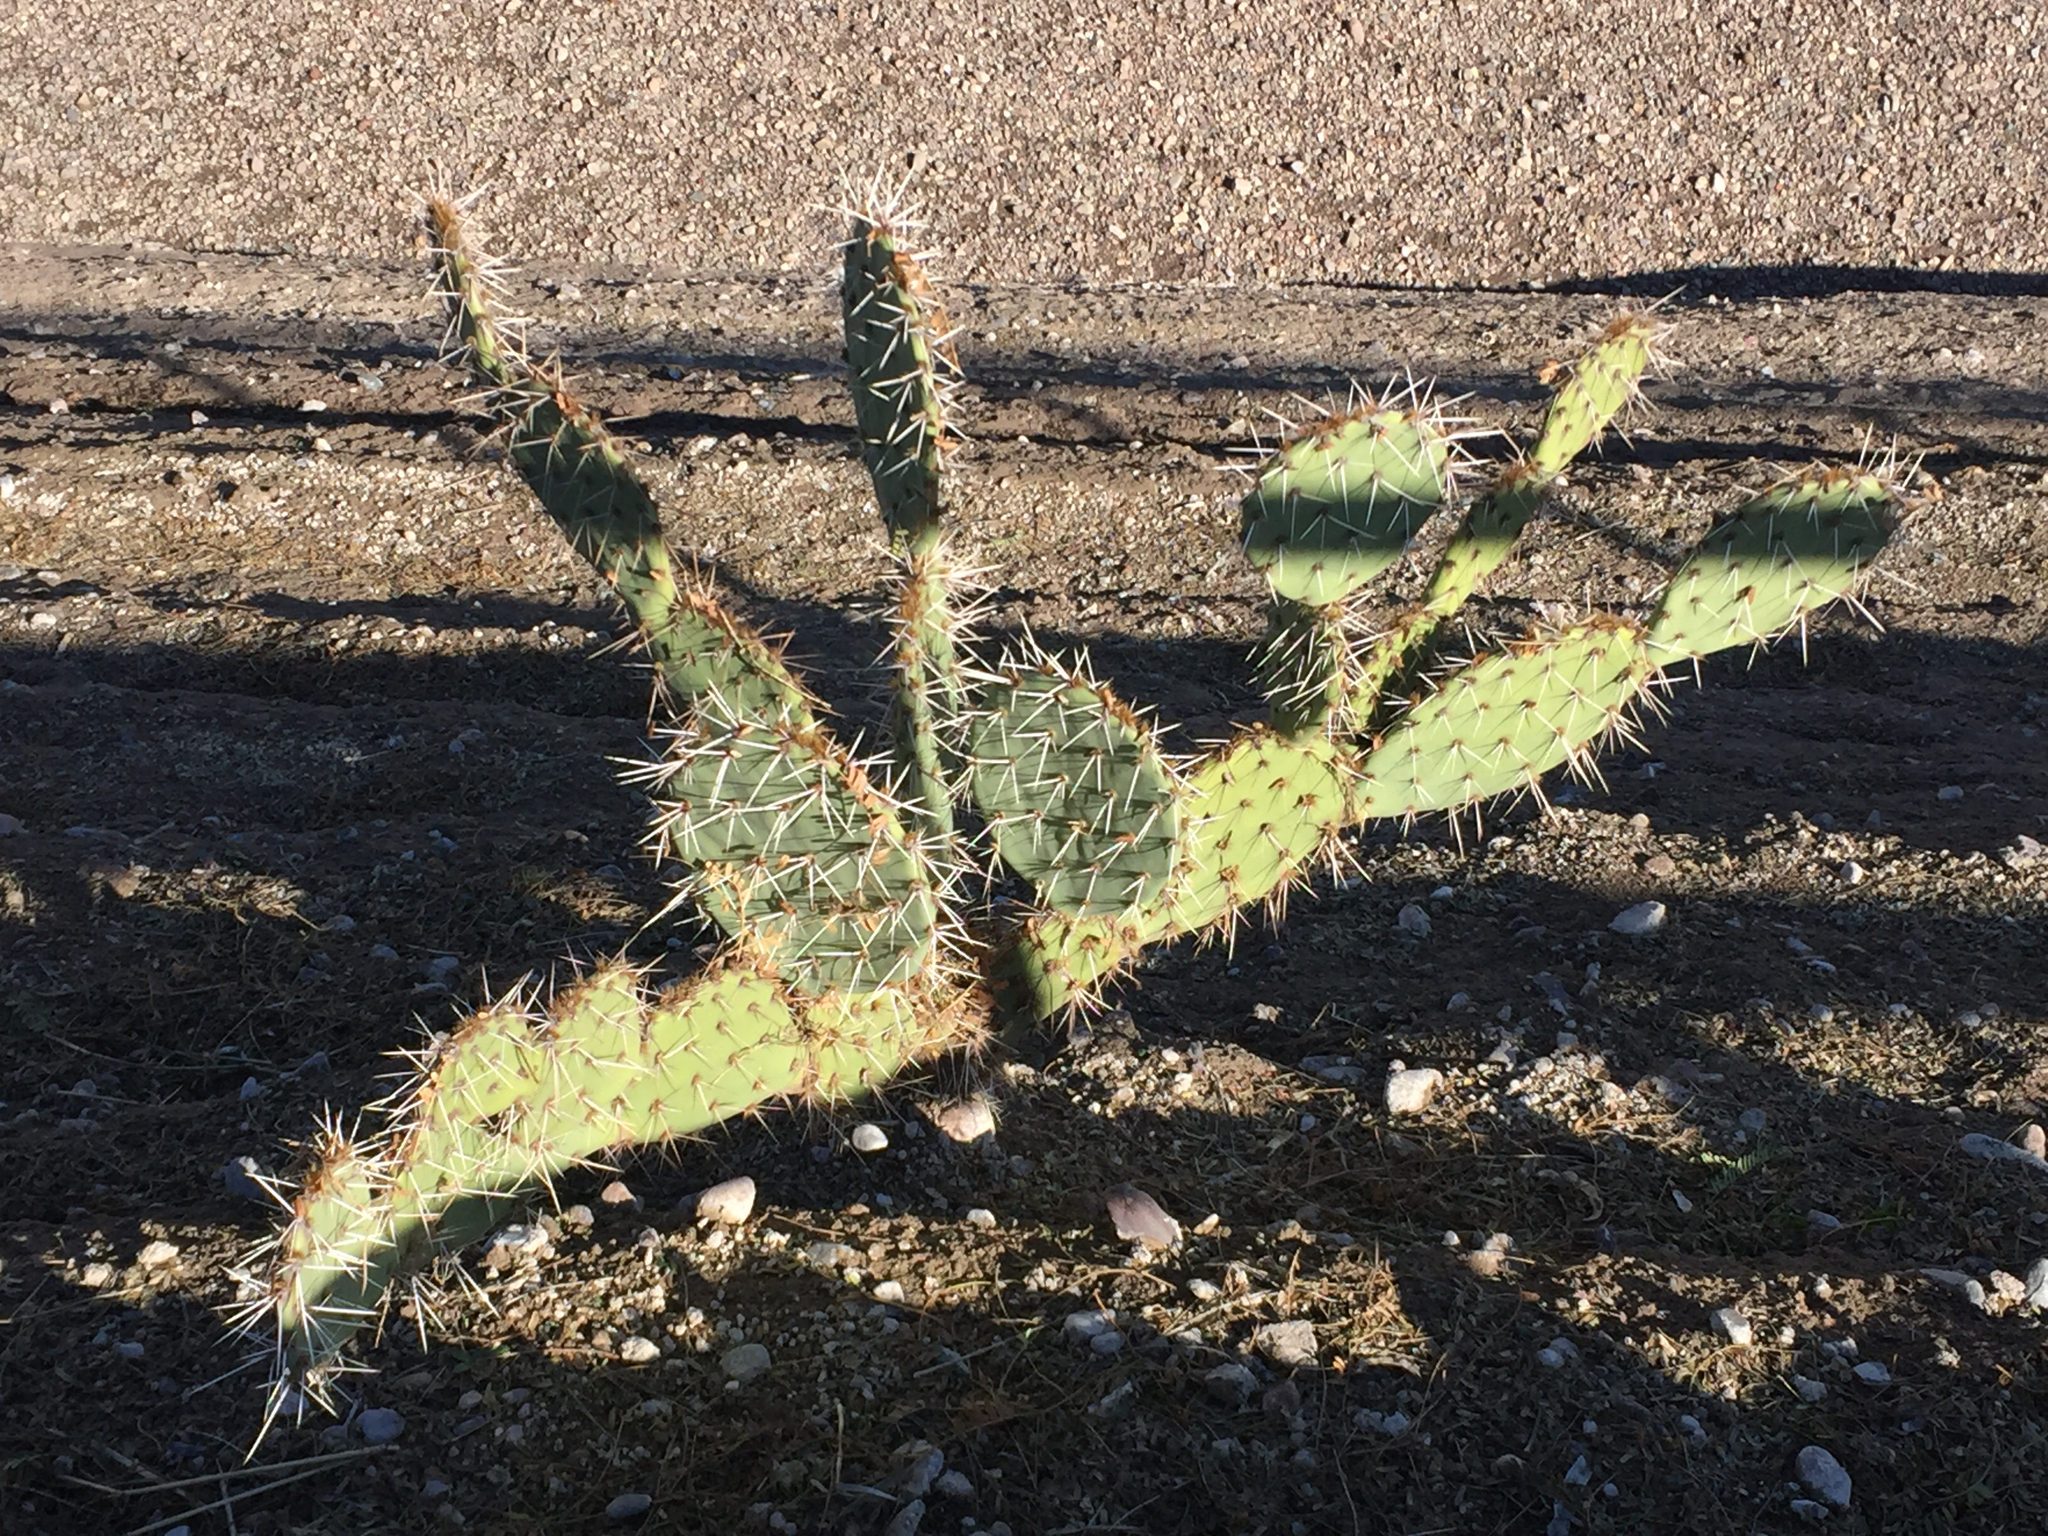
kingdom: Plantae
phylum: Tracheophyta
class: Magnoliopsida
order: Caryophyllales
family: Cactaceae
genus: Opuntia
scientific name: Opuntia engelmannii
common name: Cactus-apple
